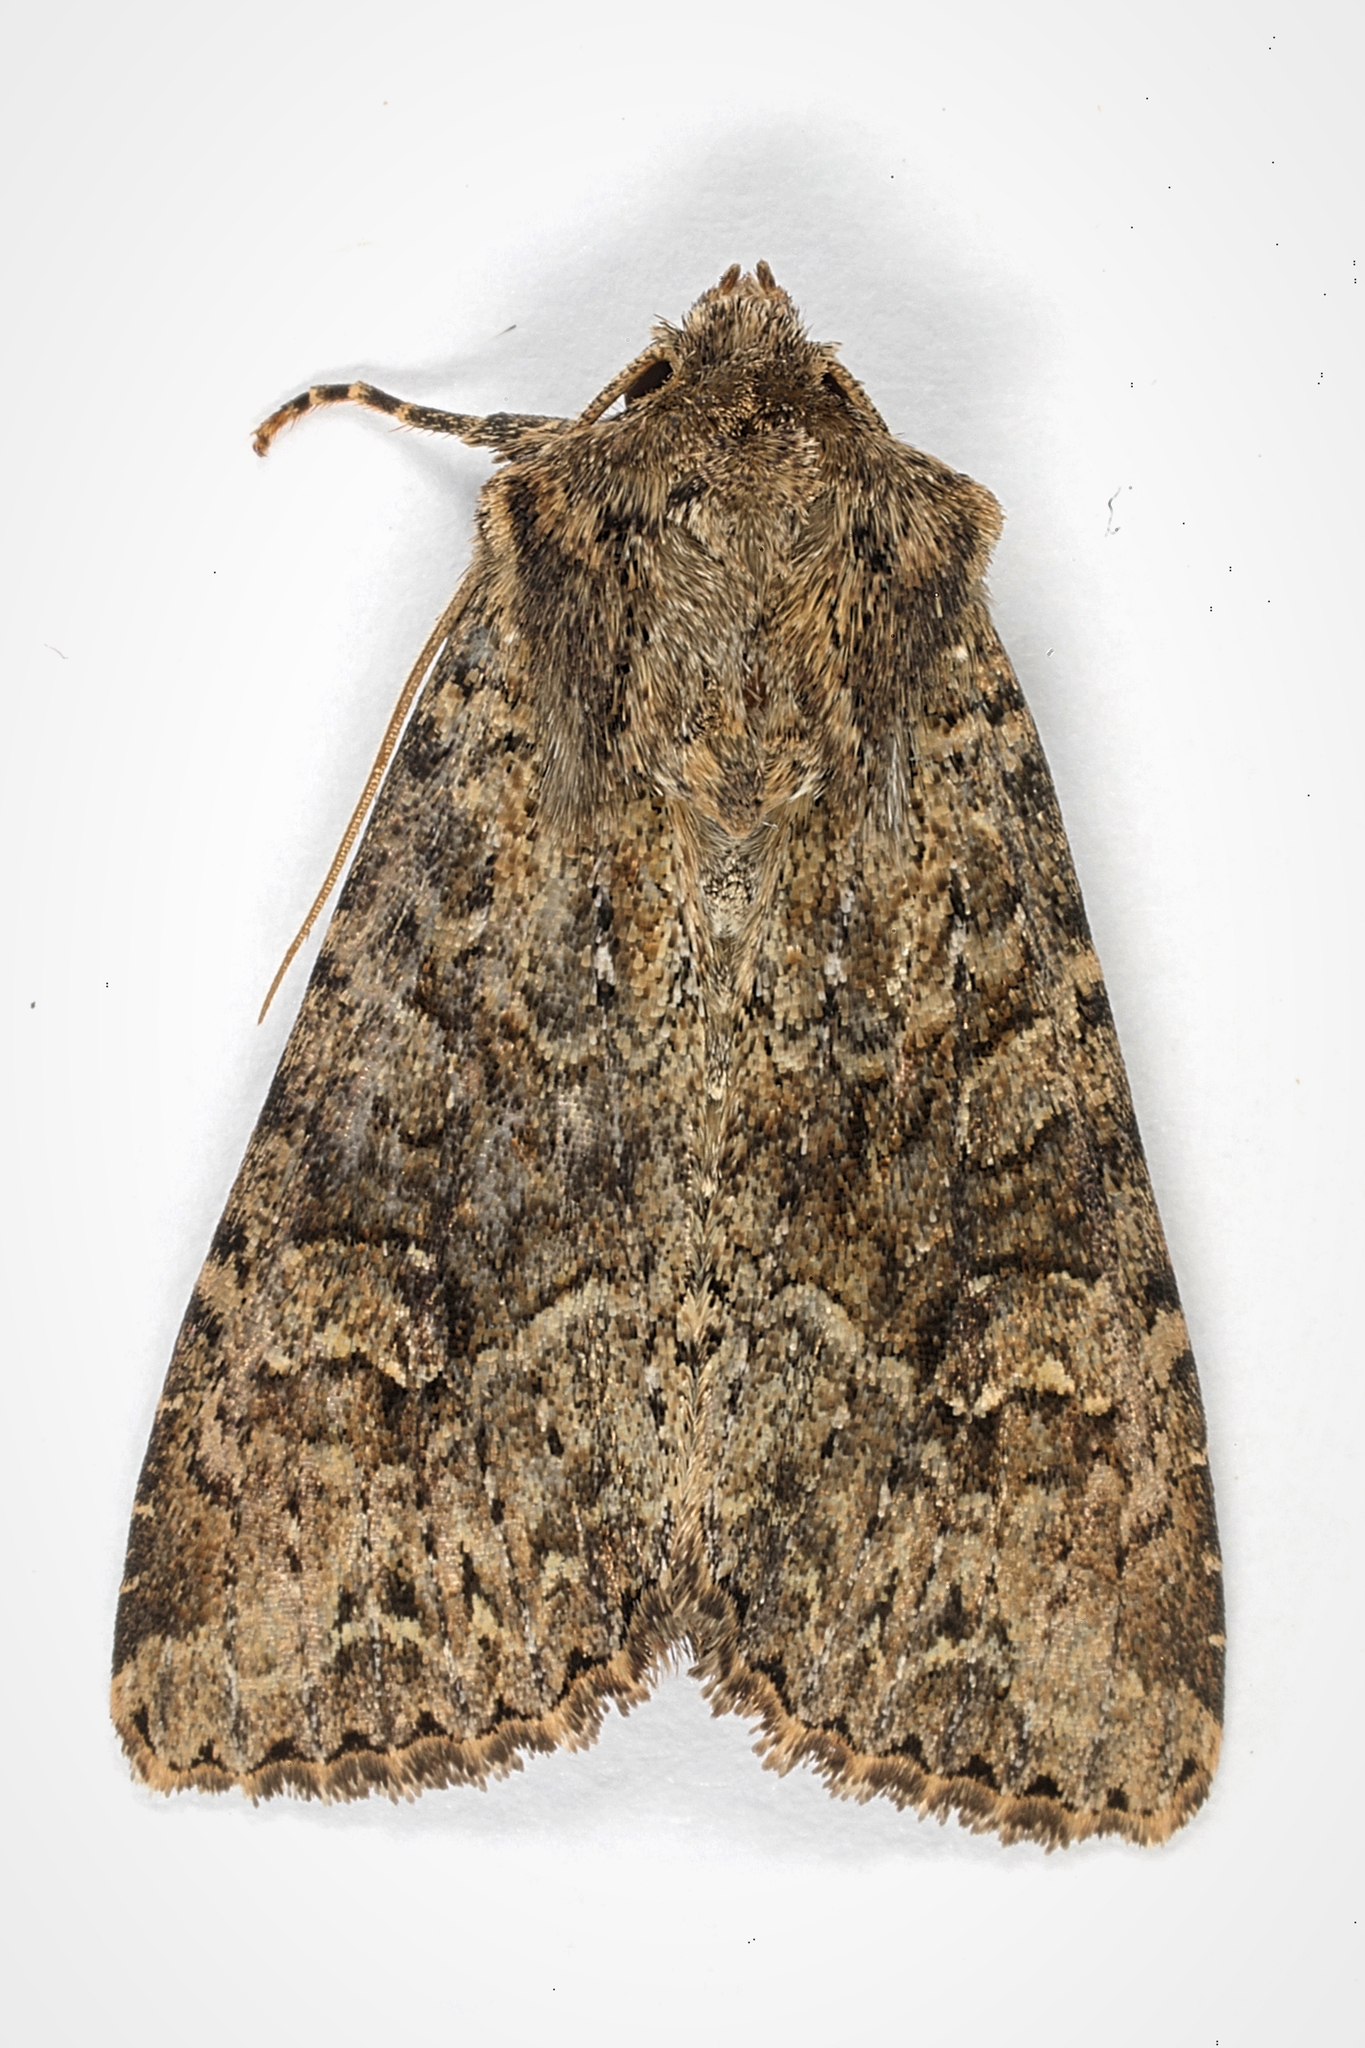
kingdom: Animalia
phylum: Arthropoda
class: Insecta
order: Lepidoptera
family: Noctuidae
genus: Apamea
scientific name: Apamea remissa
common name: Dusky brocade
